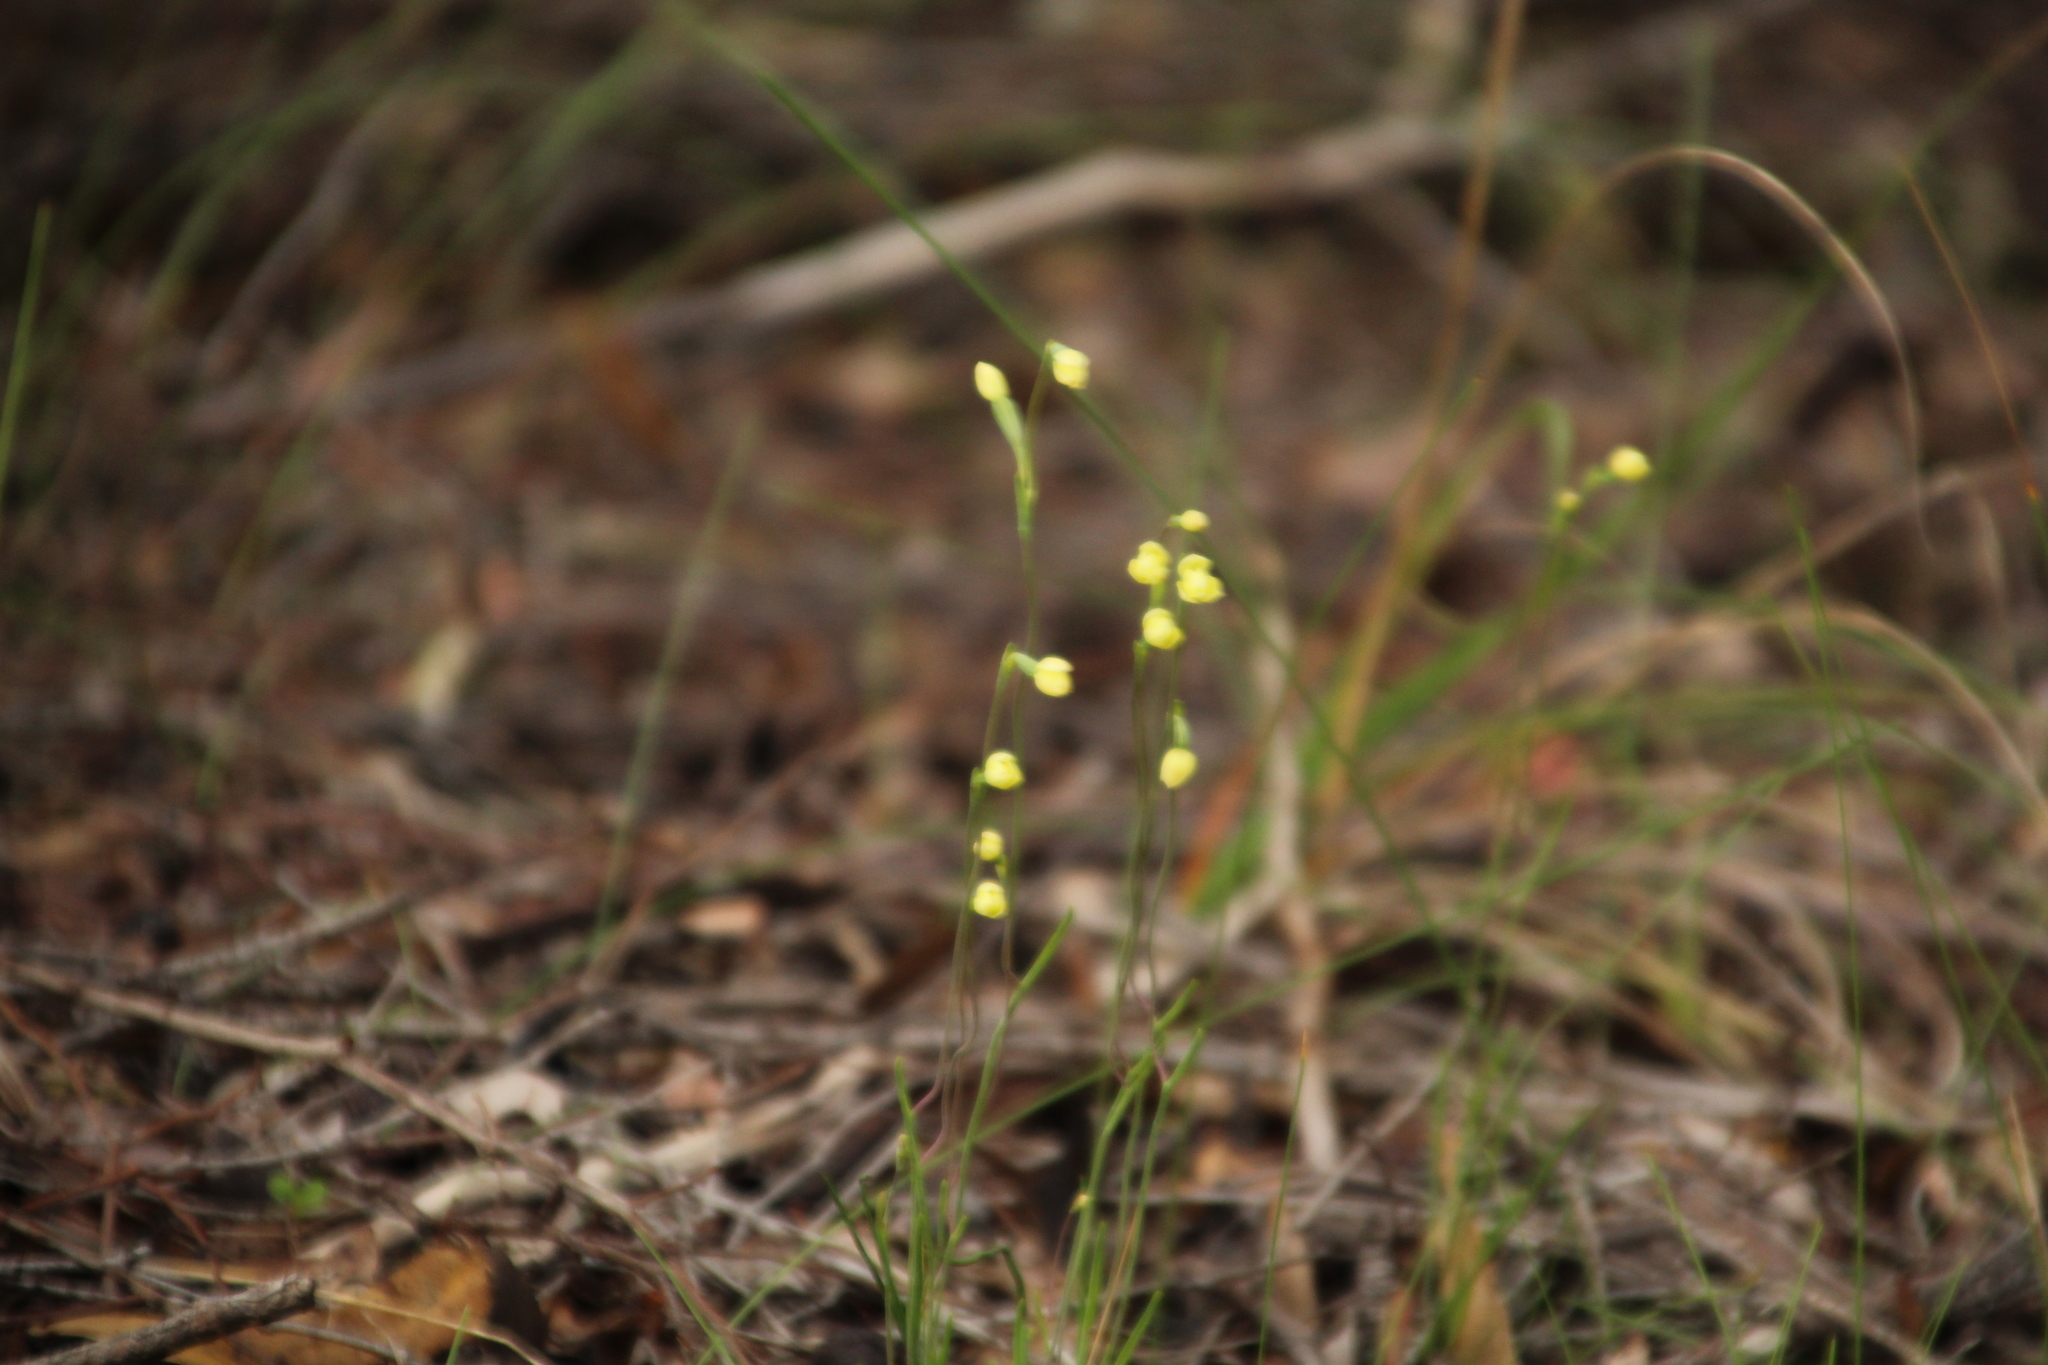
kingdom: Plantae
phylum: Tracheophyta
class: Liliopsida
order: Asparagales
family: Orchidaceae
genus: Thelymitra
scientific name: Thelymitra flexuosa
